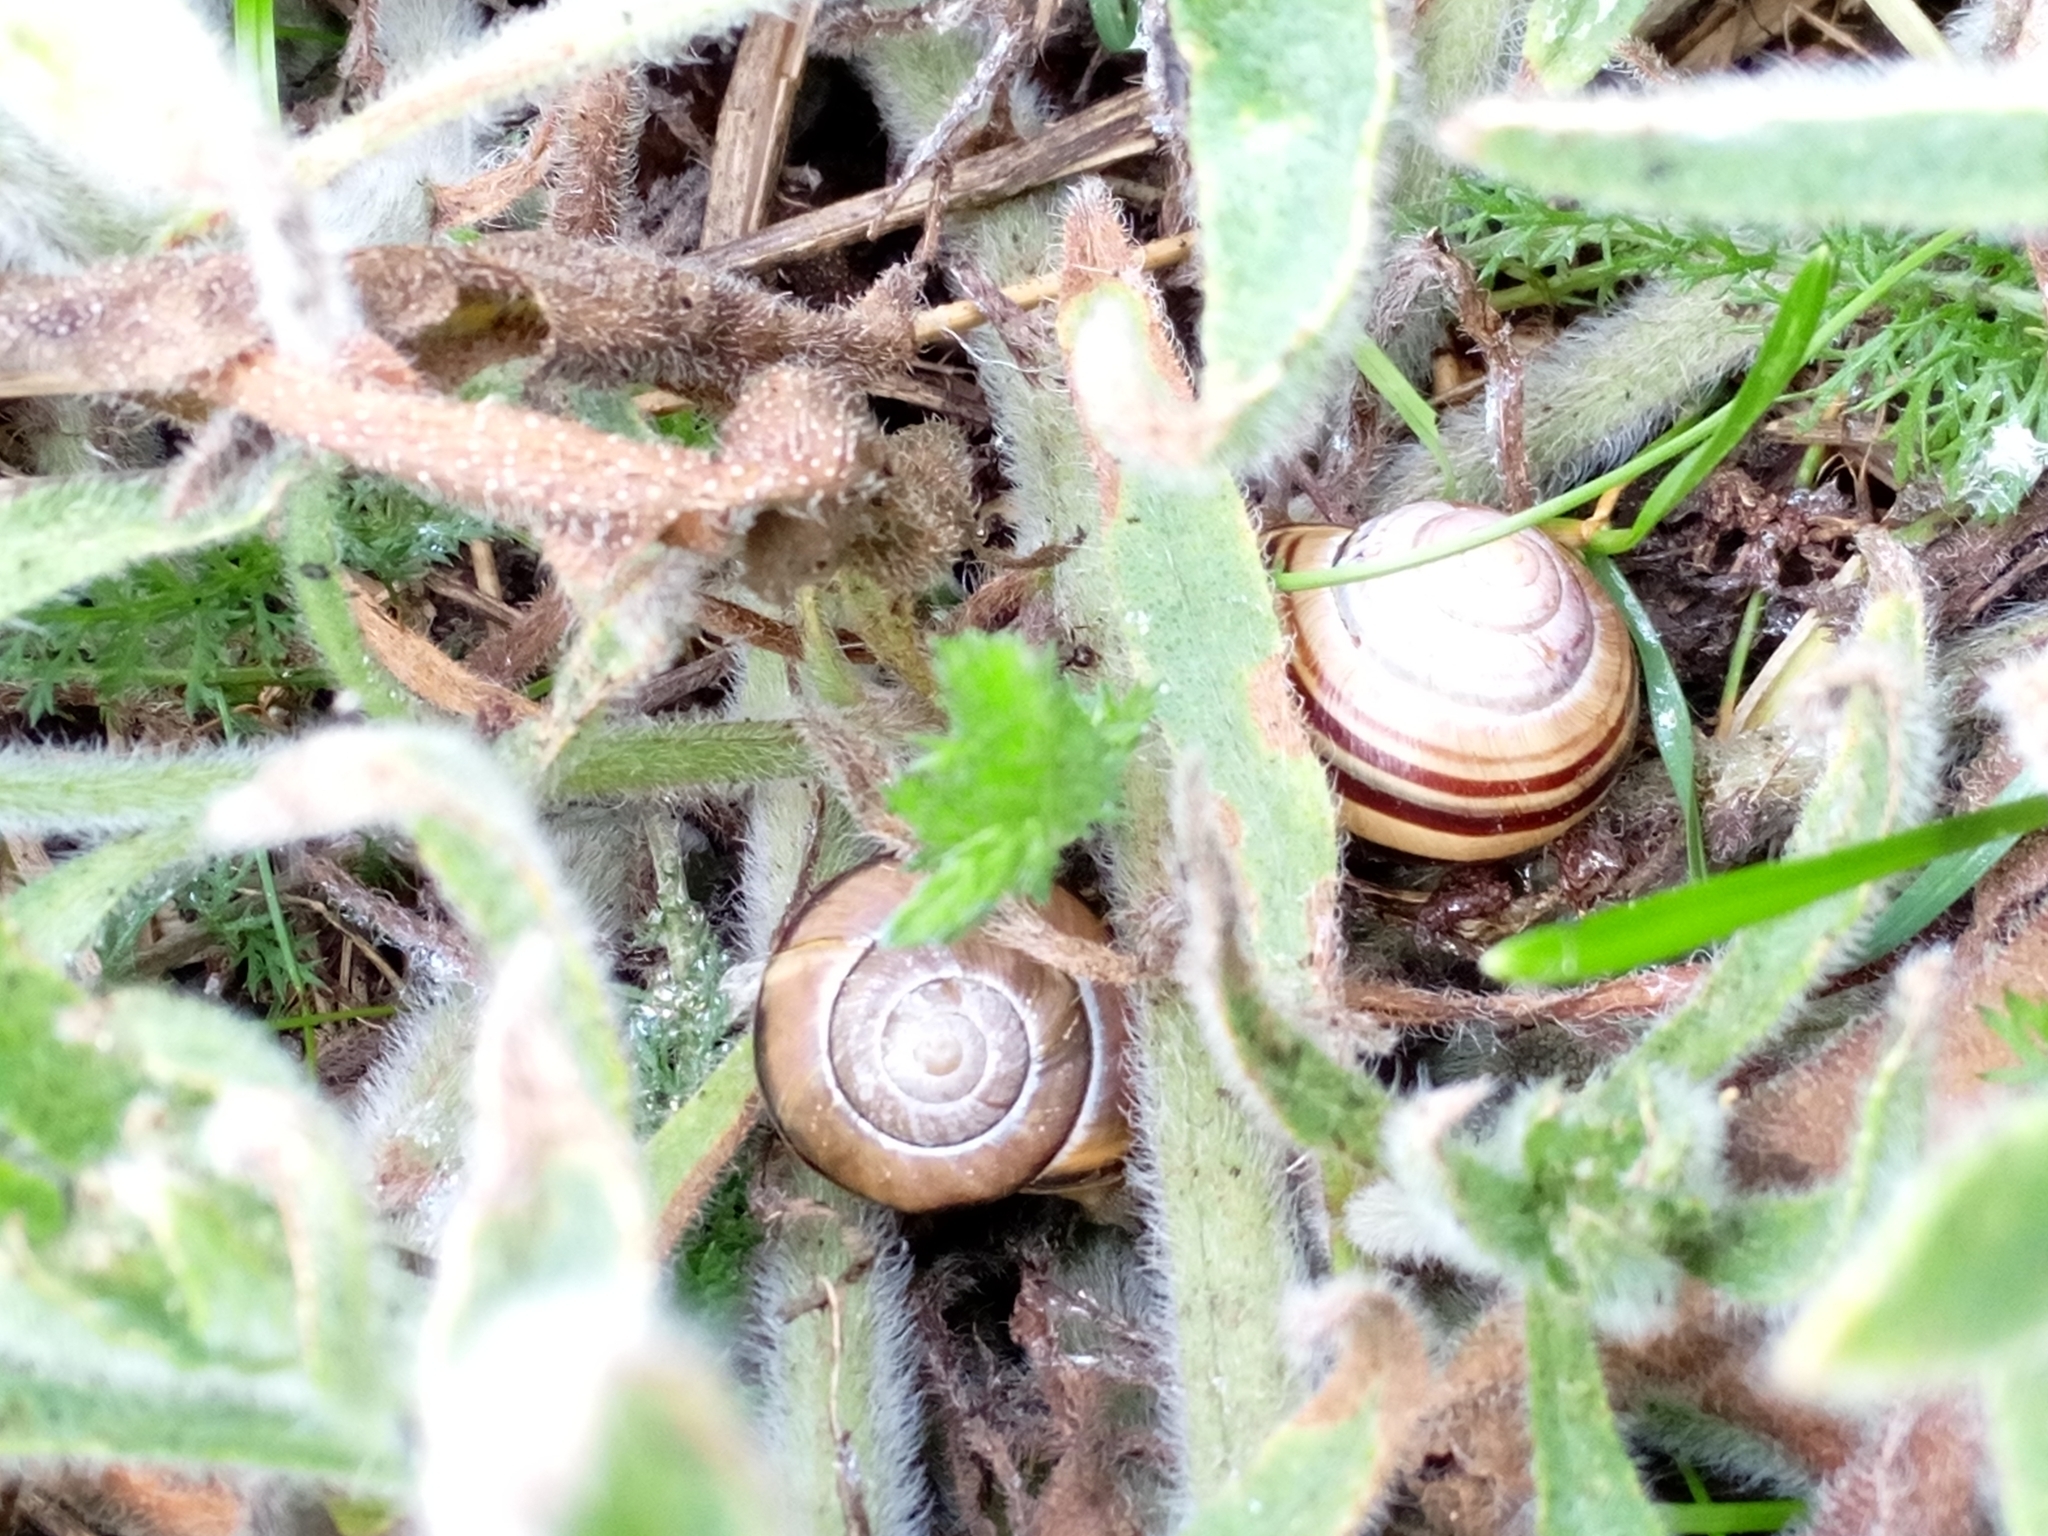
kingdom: Animalia
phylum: Mollusca
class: Gastropoda
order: Stylommatophora
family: Helicidae
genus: Cepaea
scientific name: Cepaea nemoralis
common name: Grovesnail
